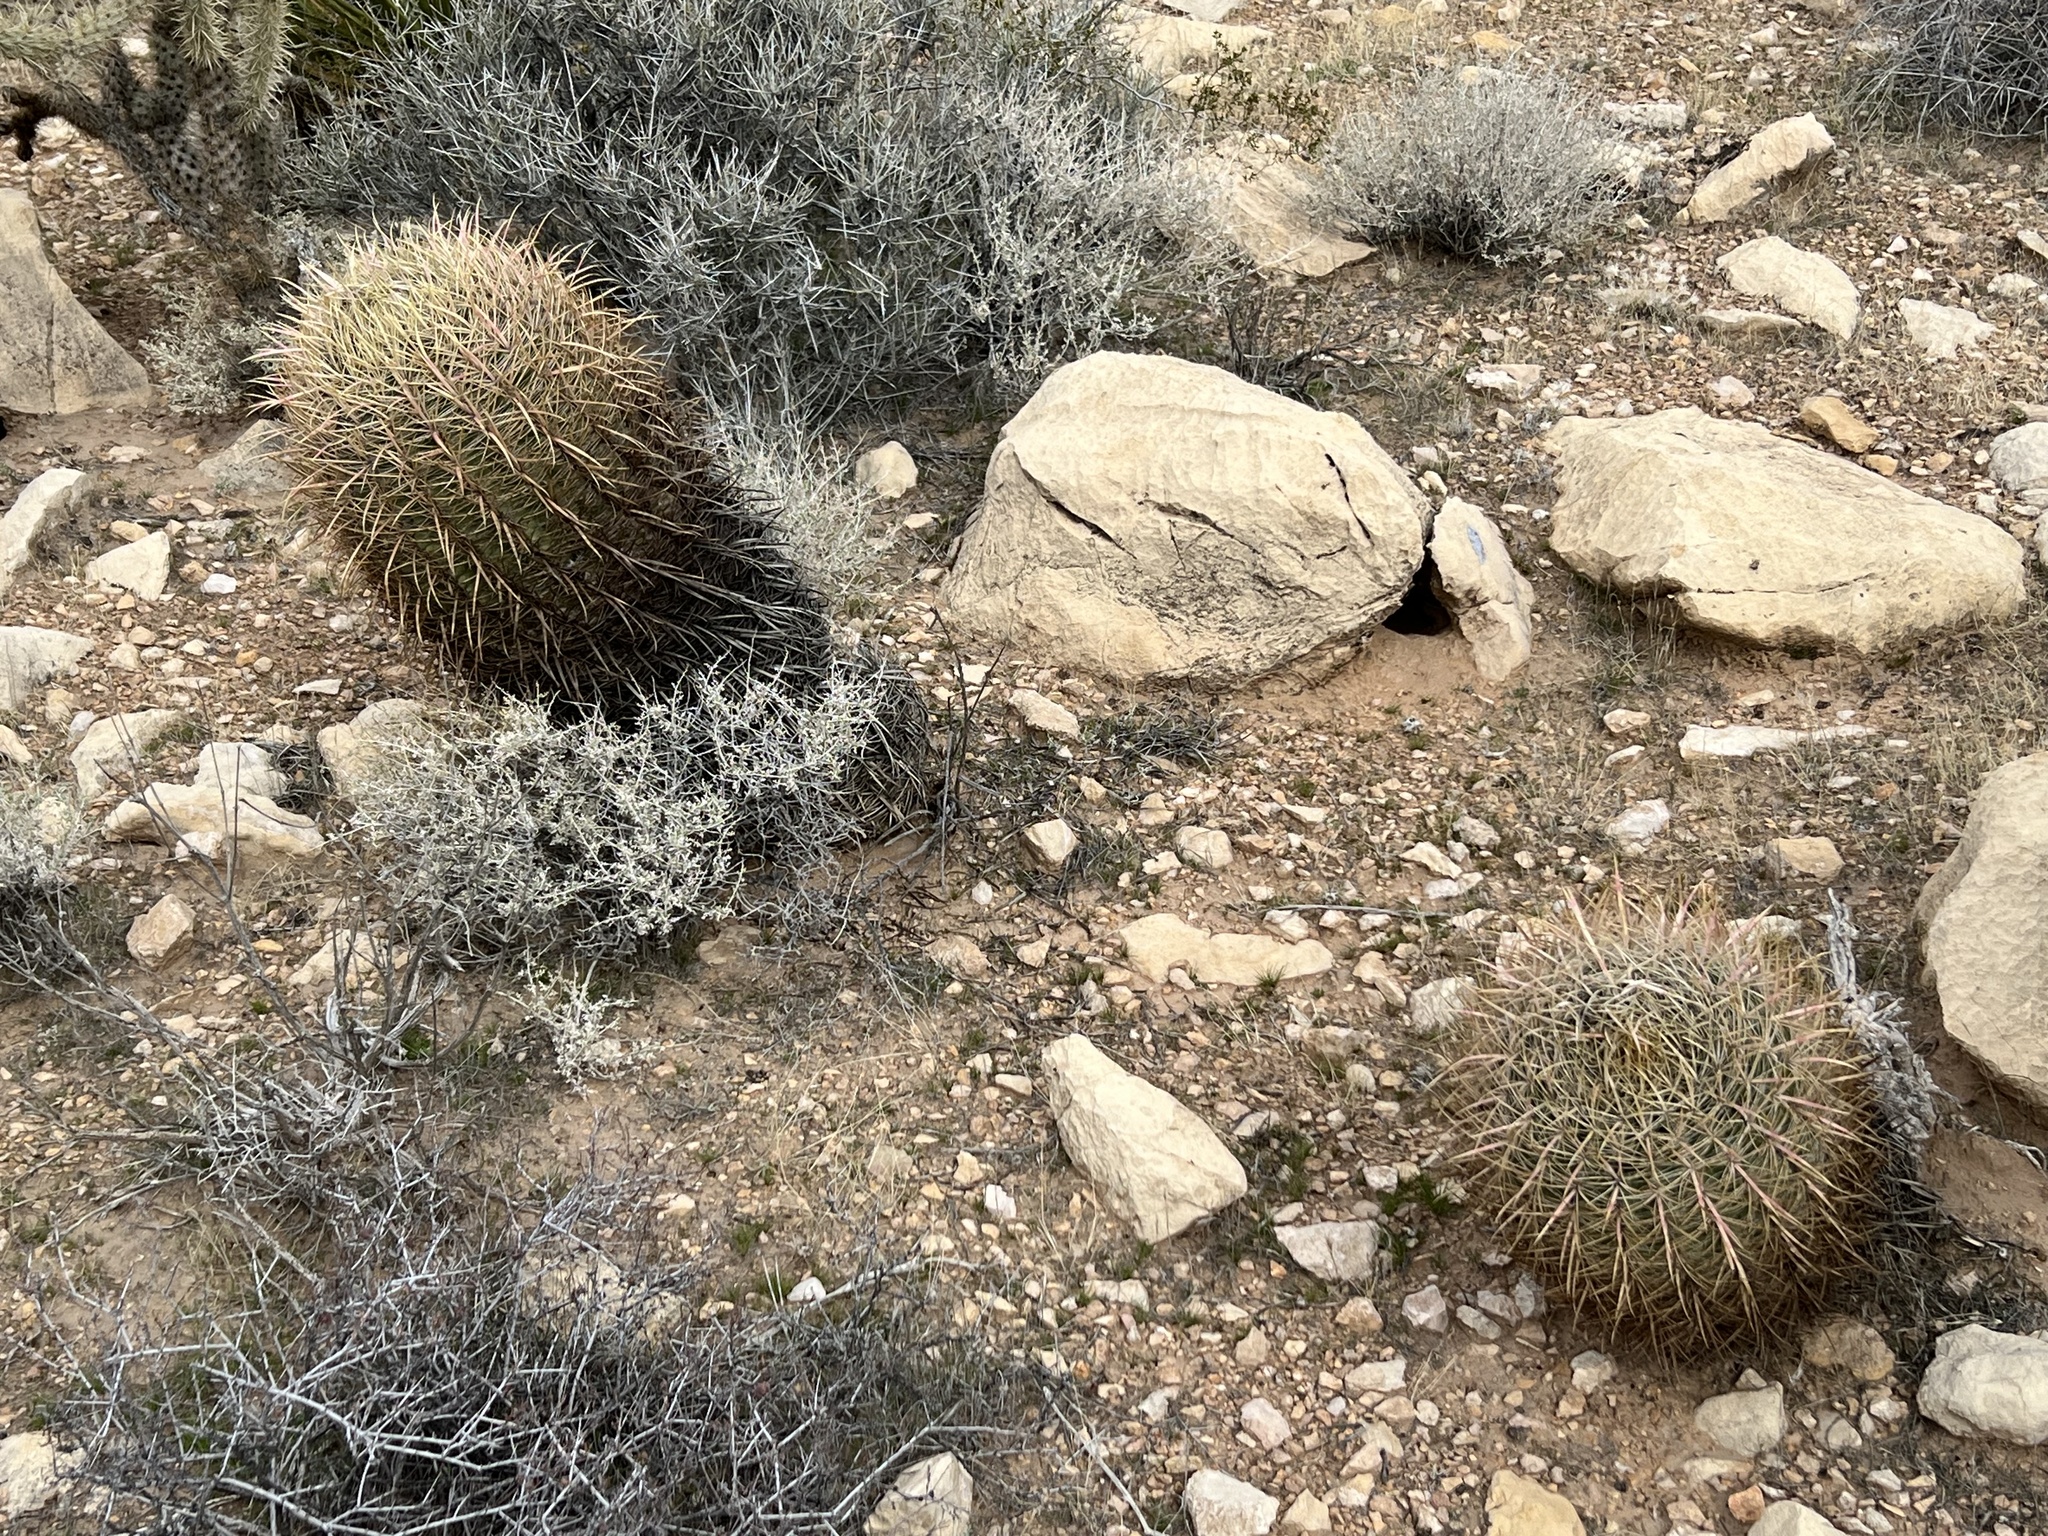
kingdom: Plantae
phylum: Tracheophyta
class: Magnoliopsida
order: Caryophyllales
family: Cactaceae
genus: Ferocactus
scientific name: Ferocactus cylindraceus
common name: California barrel cactus
